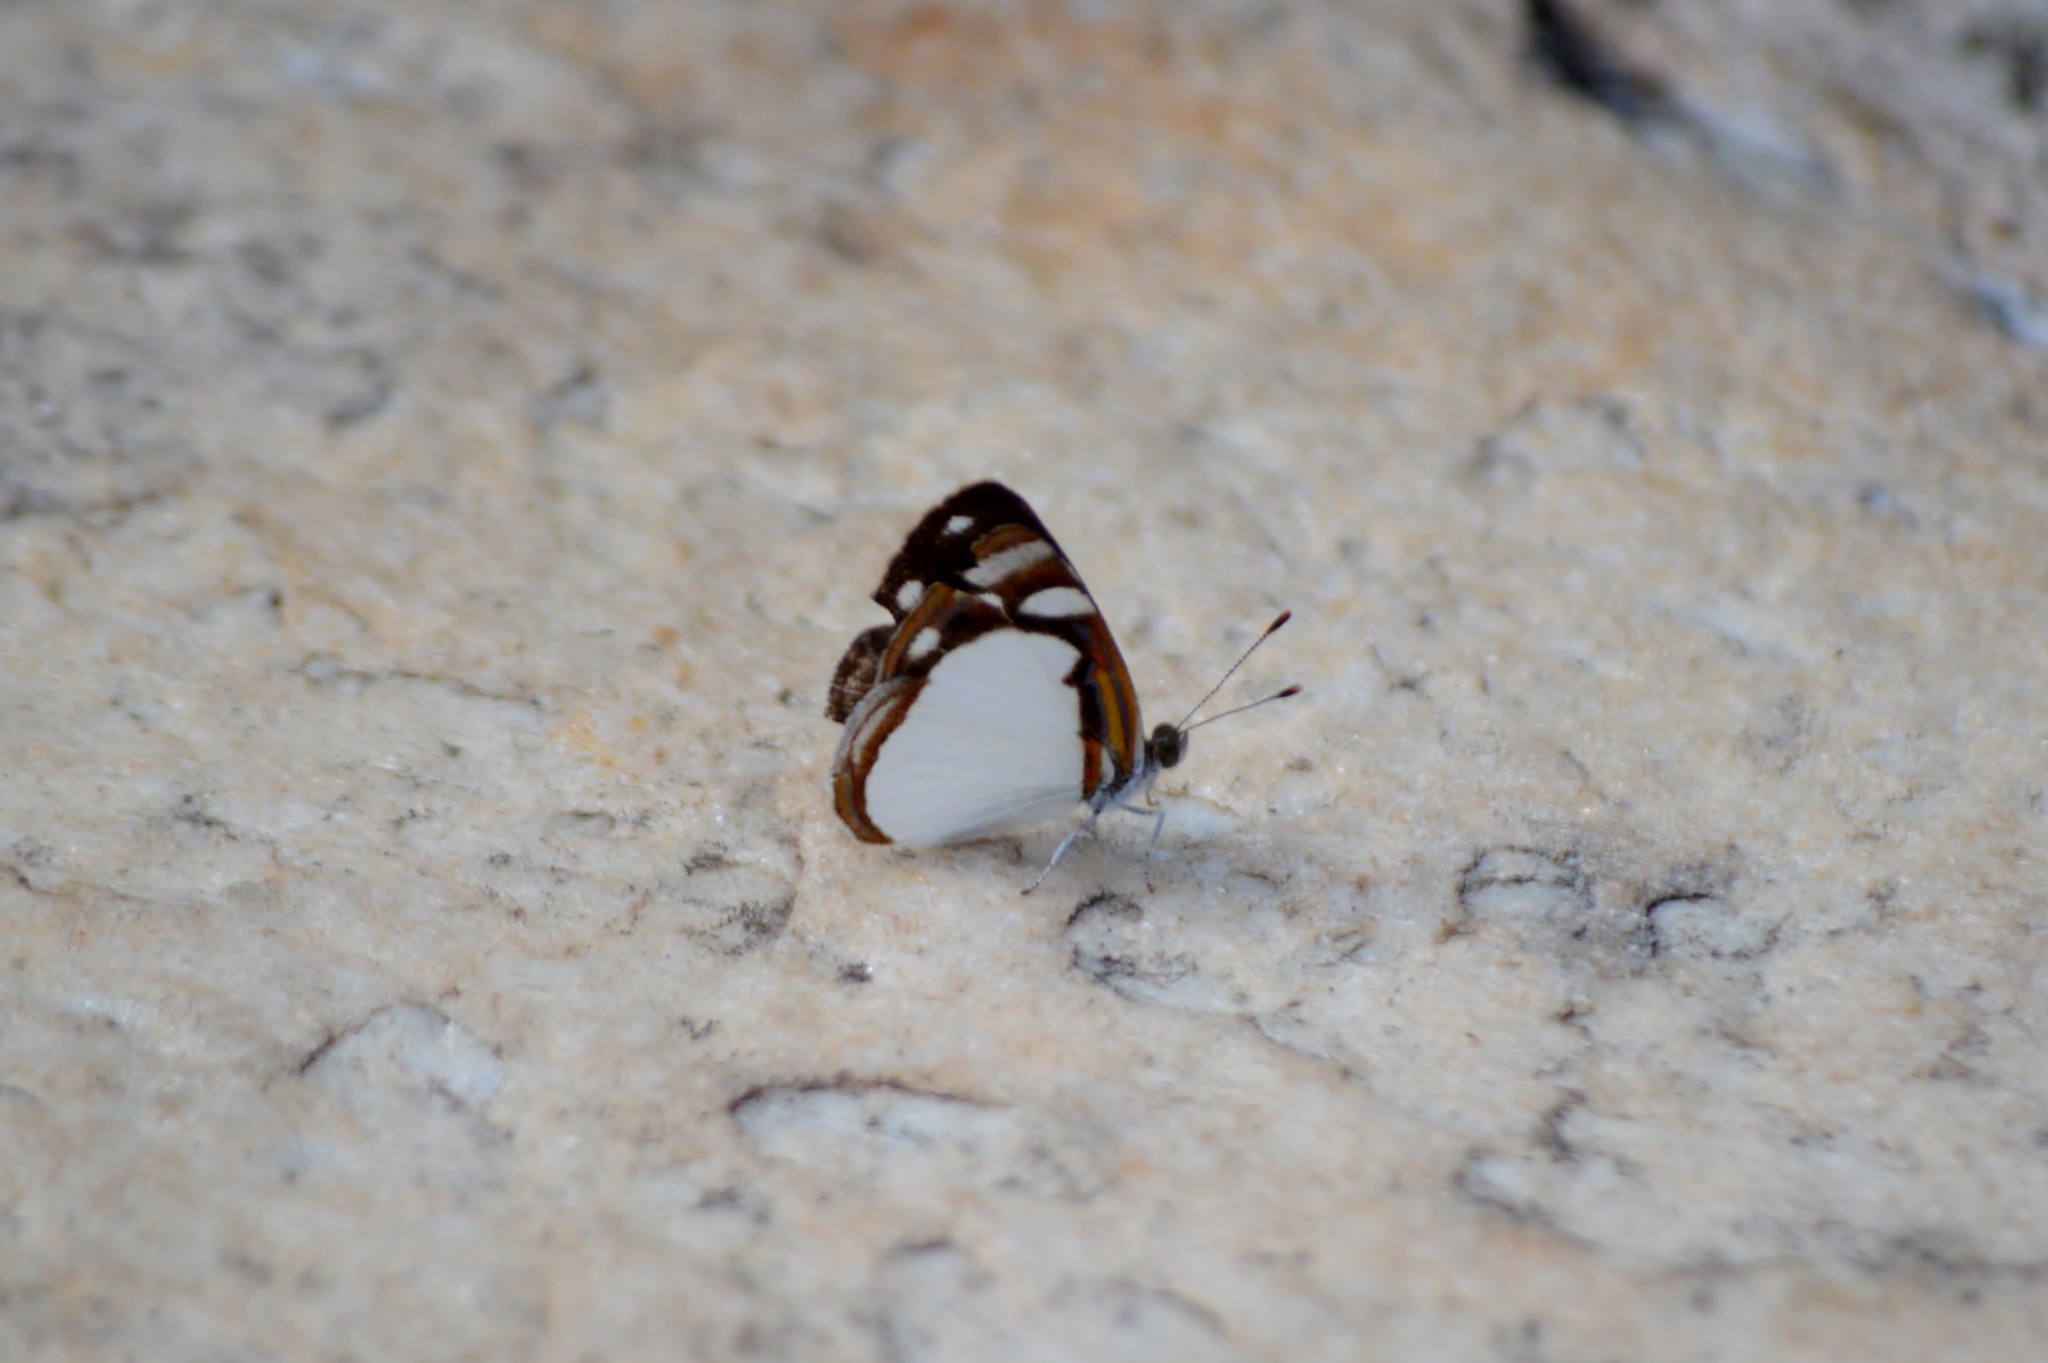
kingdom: Animalia
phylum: Arthropoda
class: Insecta
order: Lepidoptera
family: Nymphalidae
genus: Dynamine
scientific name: Dynamine agacles
